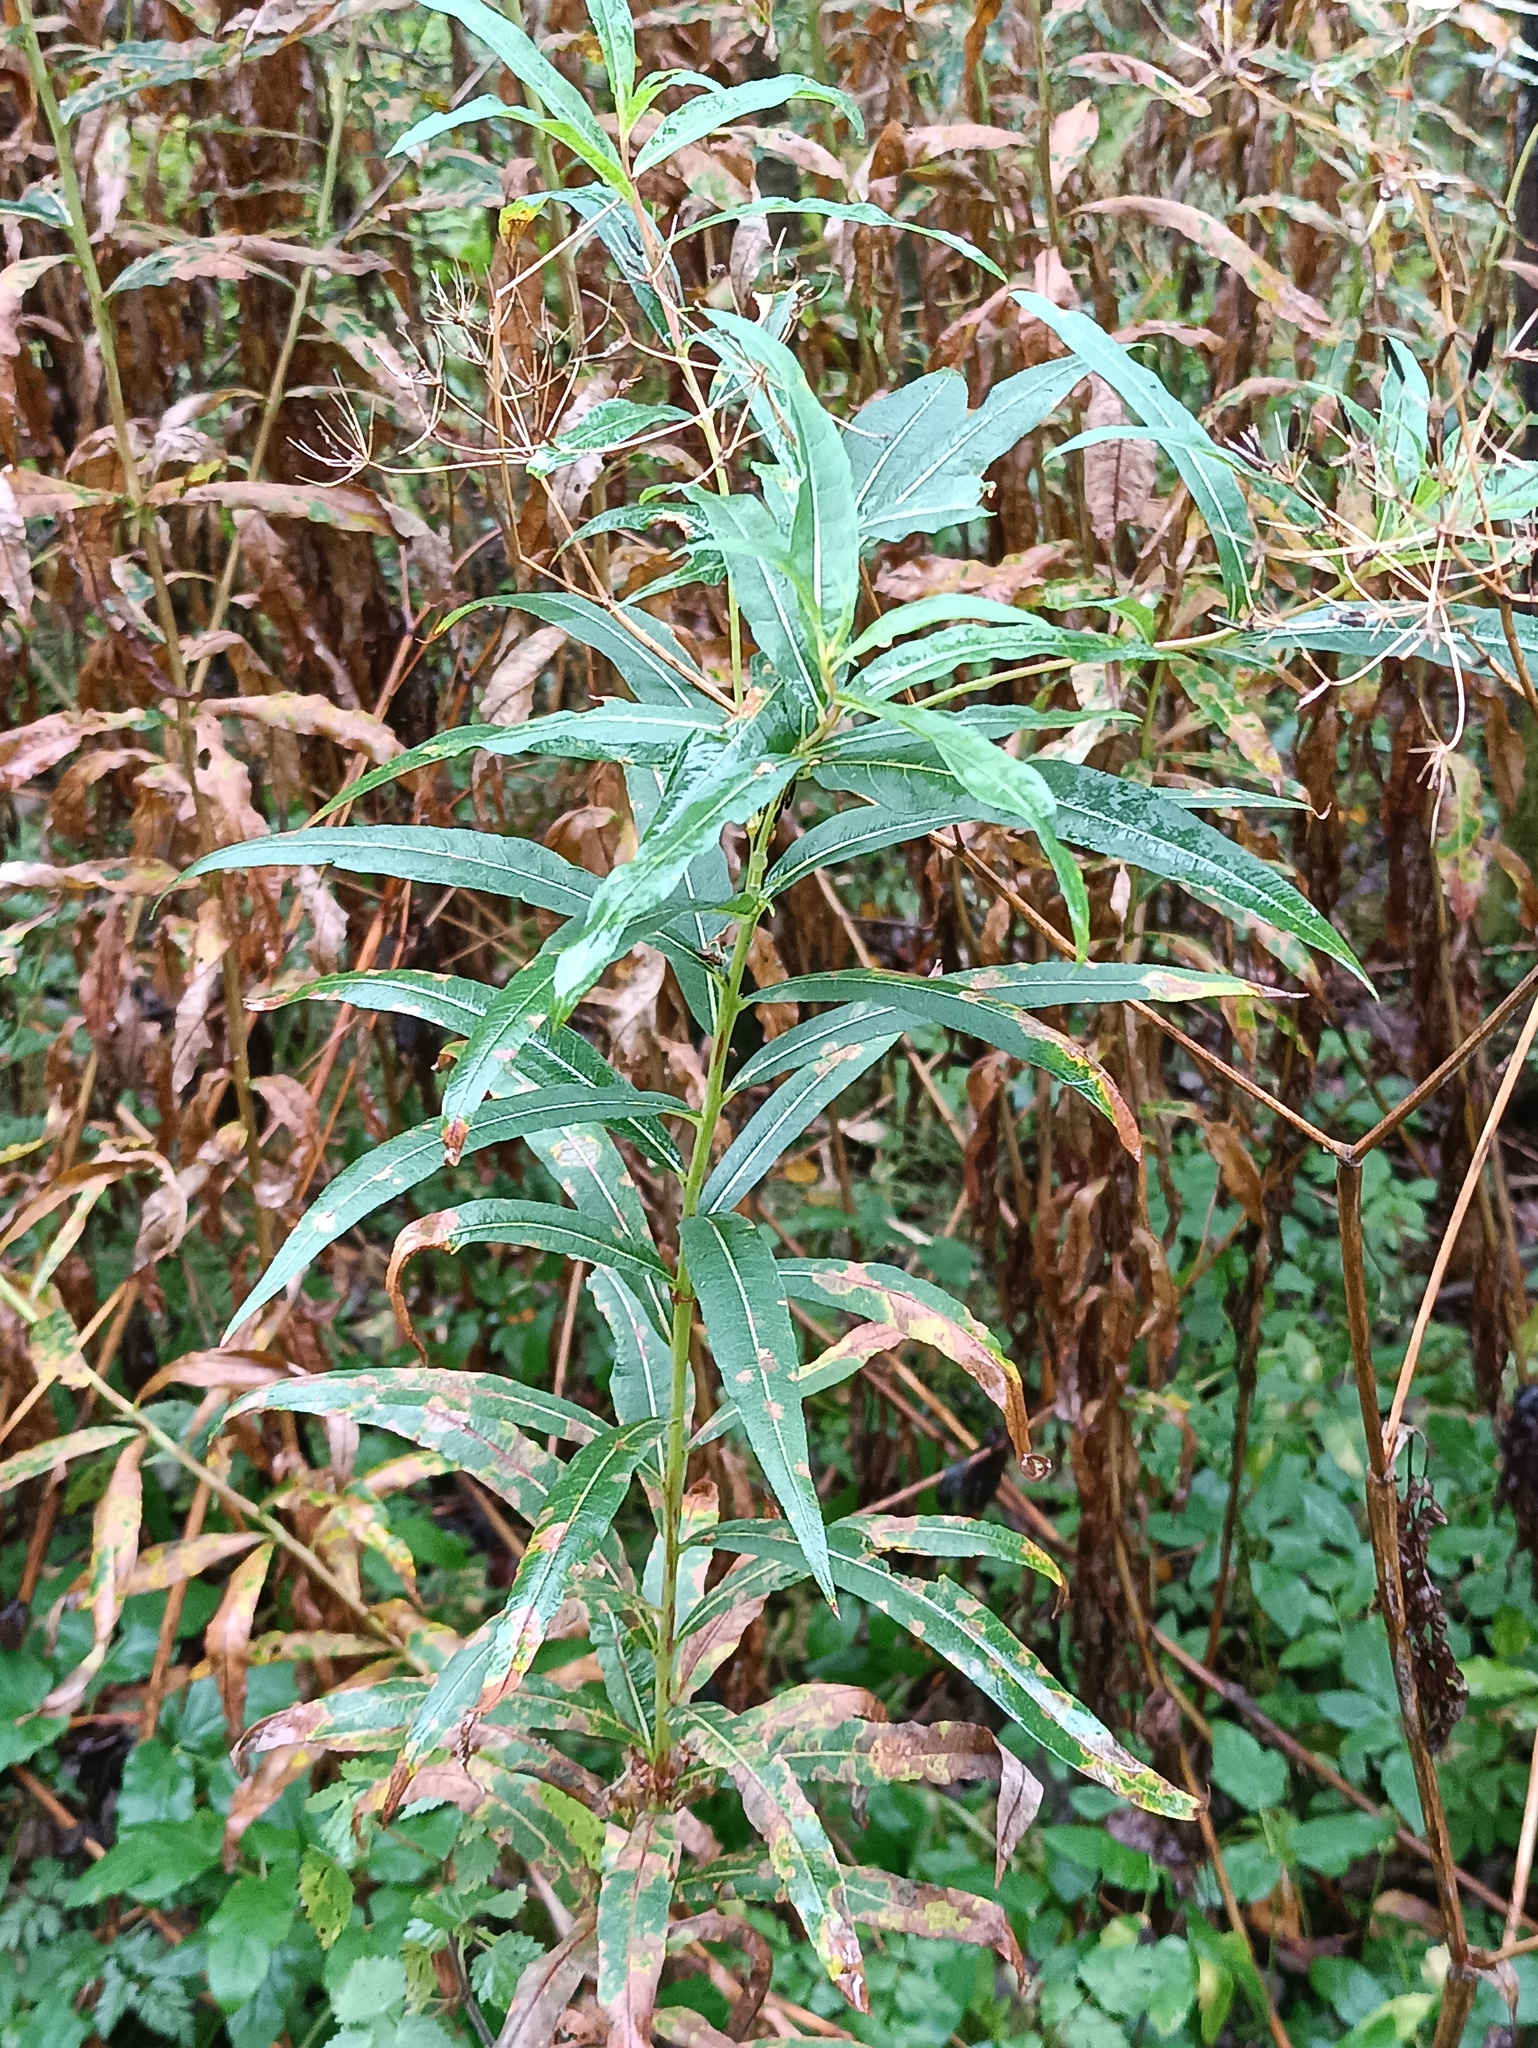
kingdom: Plantae
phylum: Tracheophyta
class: Magnoliopsida
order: Myrtales
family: Onagraceae
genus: Chamaenerion
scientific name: Chamaenerion angustifolium
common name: Fireweed
